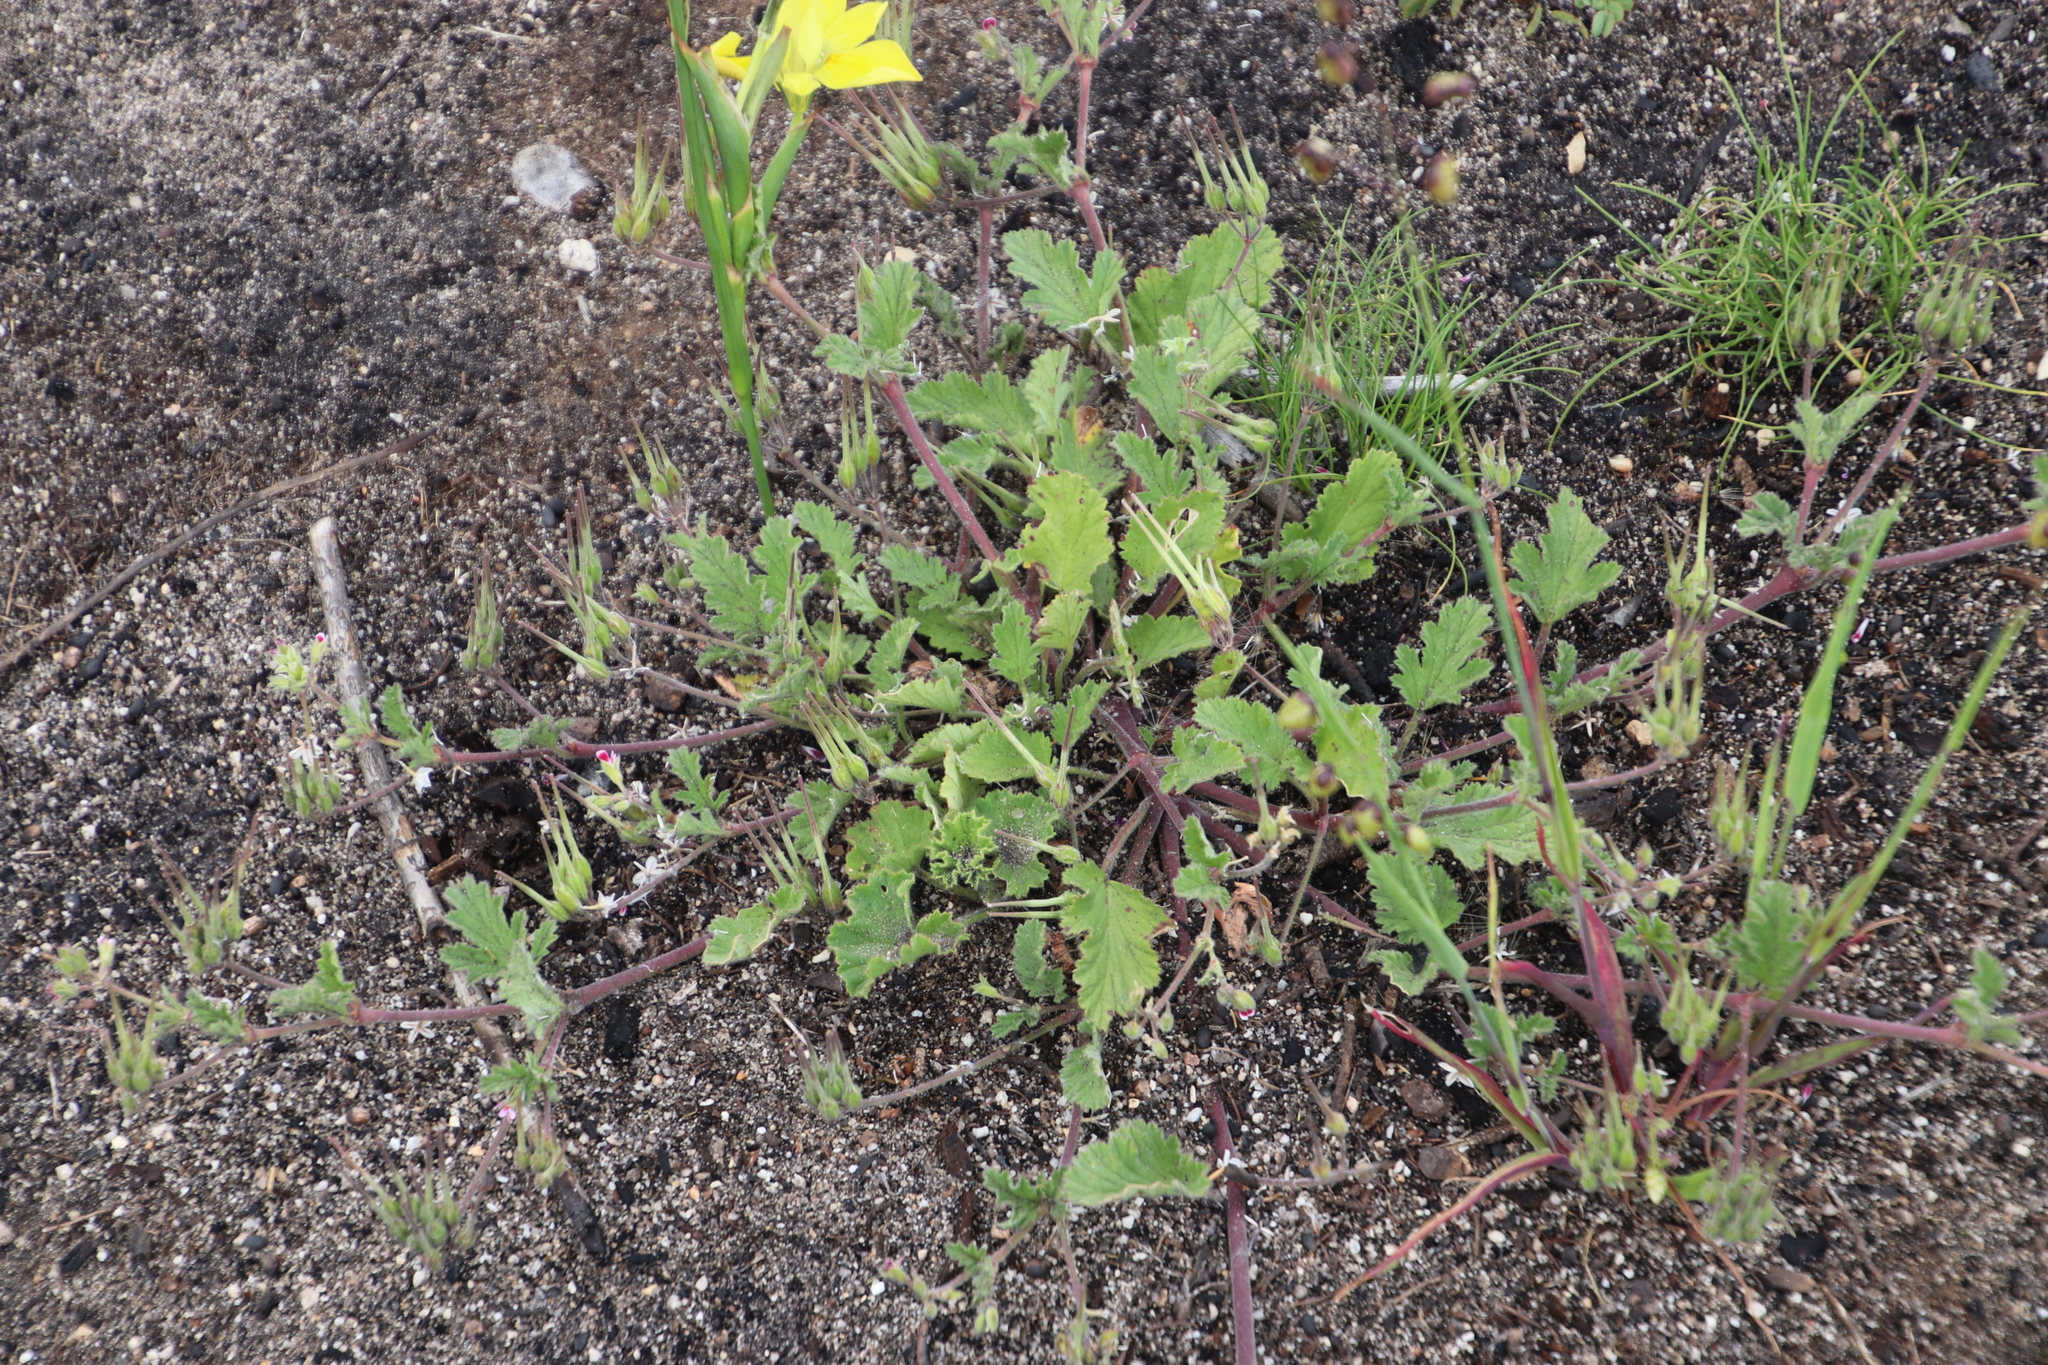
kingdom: Plantae
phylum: Tracheophyta
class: Magnoliopsida
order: Geraniales
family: Geraniaceae
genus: Pelargonium
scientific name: Pelargonium althaeoides
